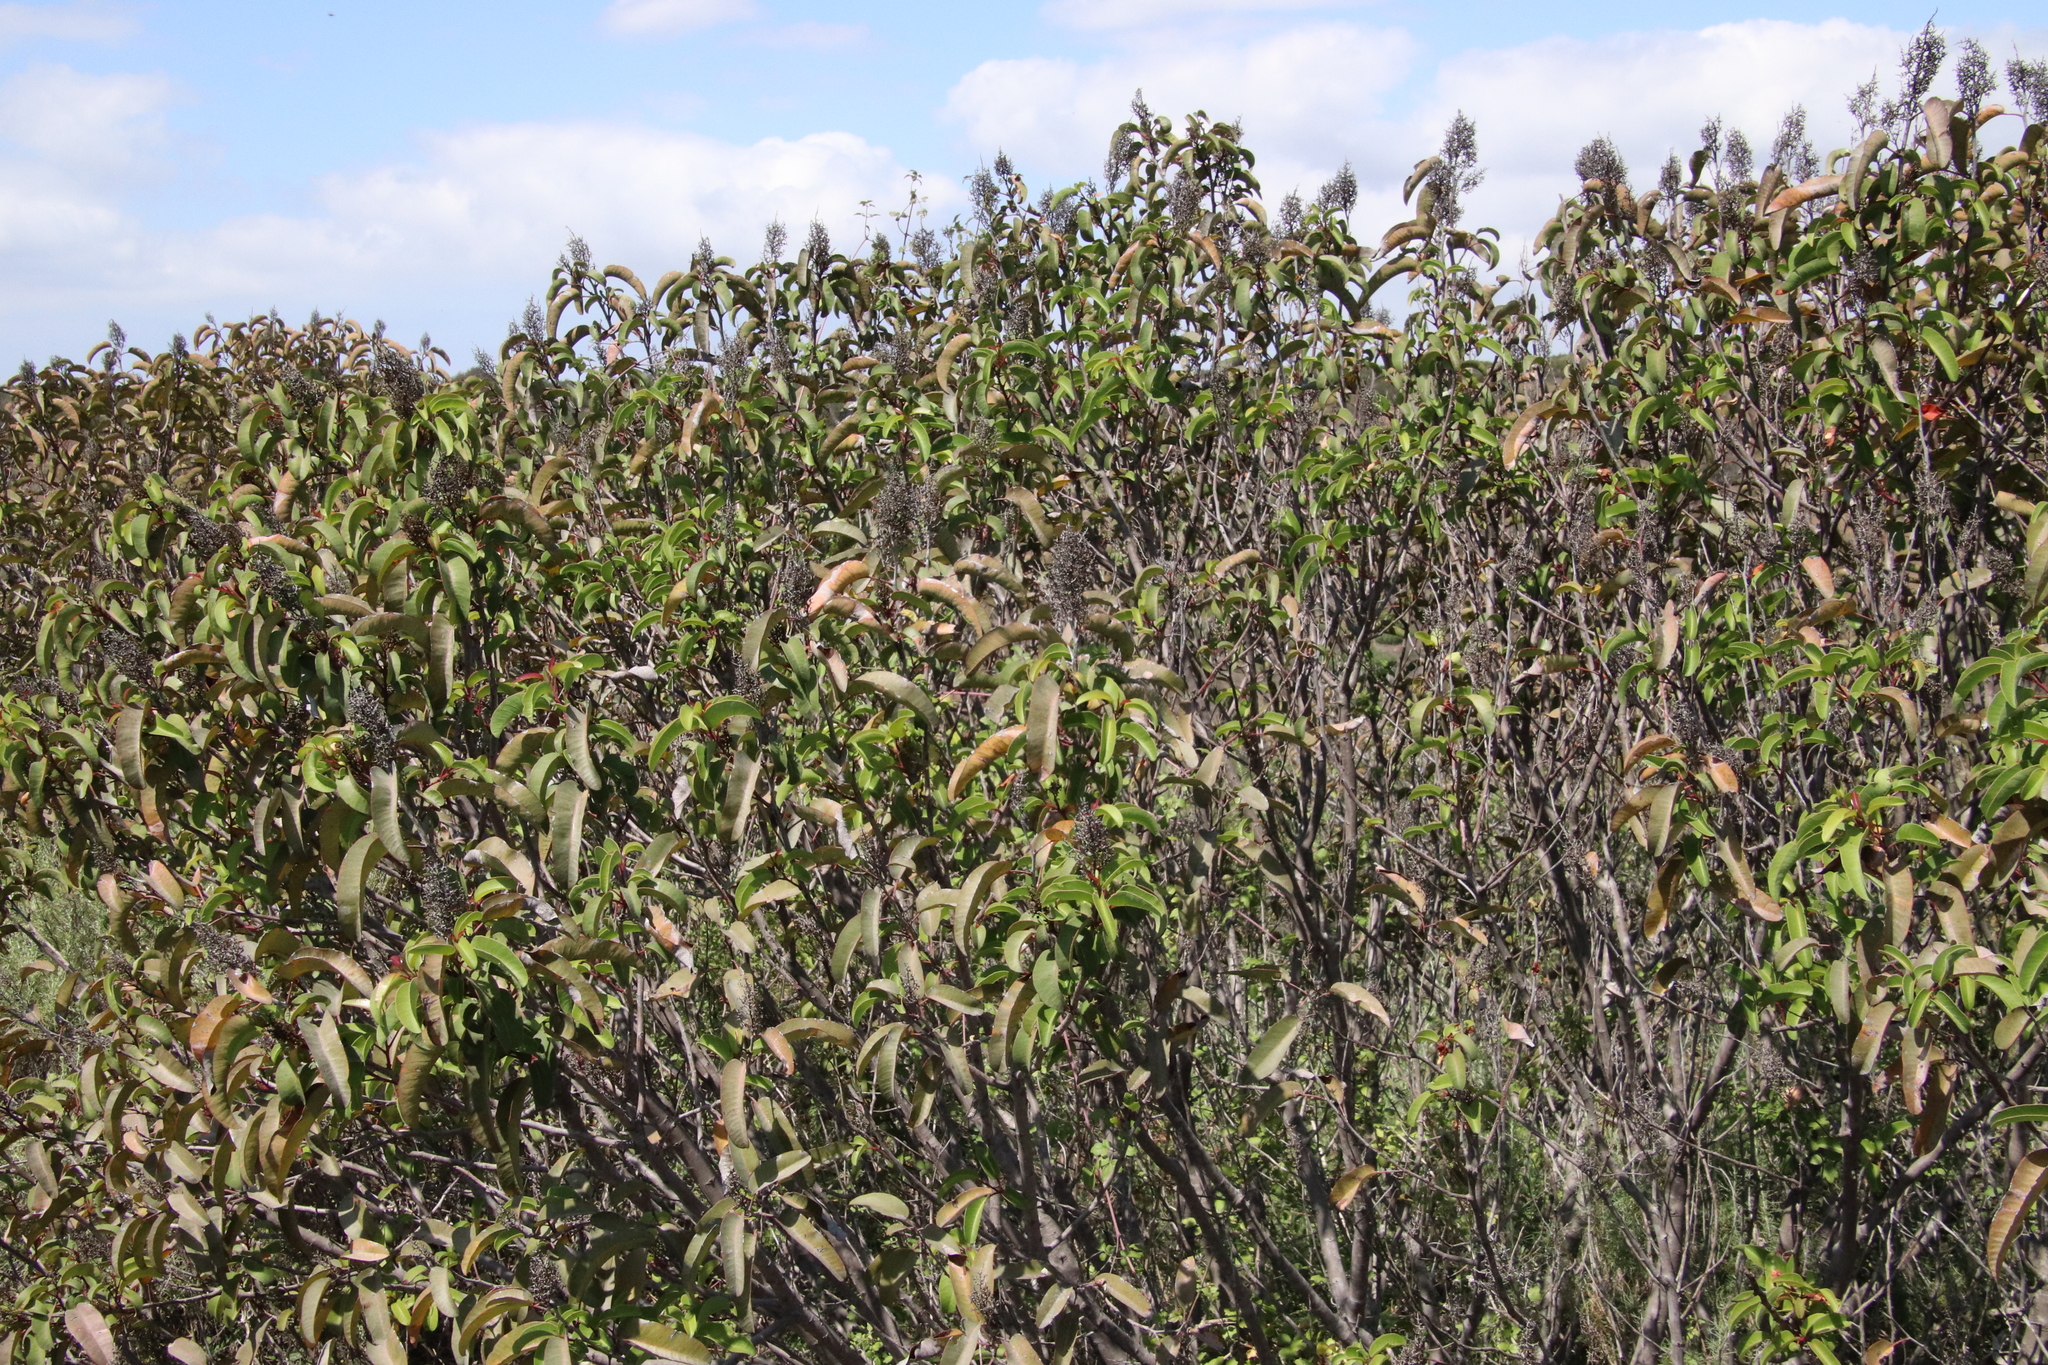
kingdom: Plantae
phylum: Tracheophyta
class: Magnoliopsida
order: Sapindales
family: Anacardiaceae
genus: Malosma
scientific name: Malosma laurina
